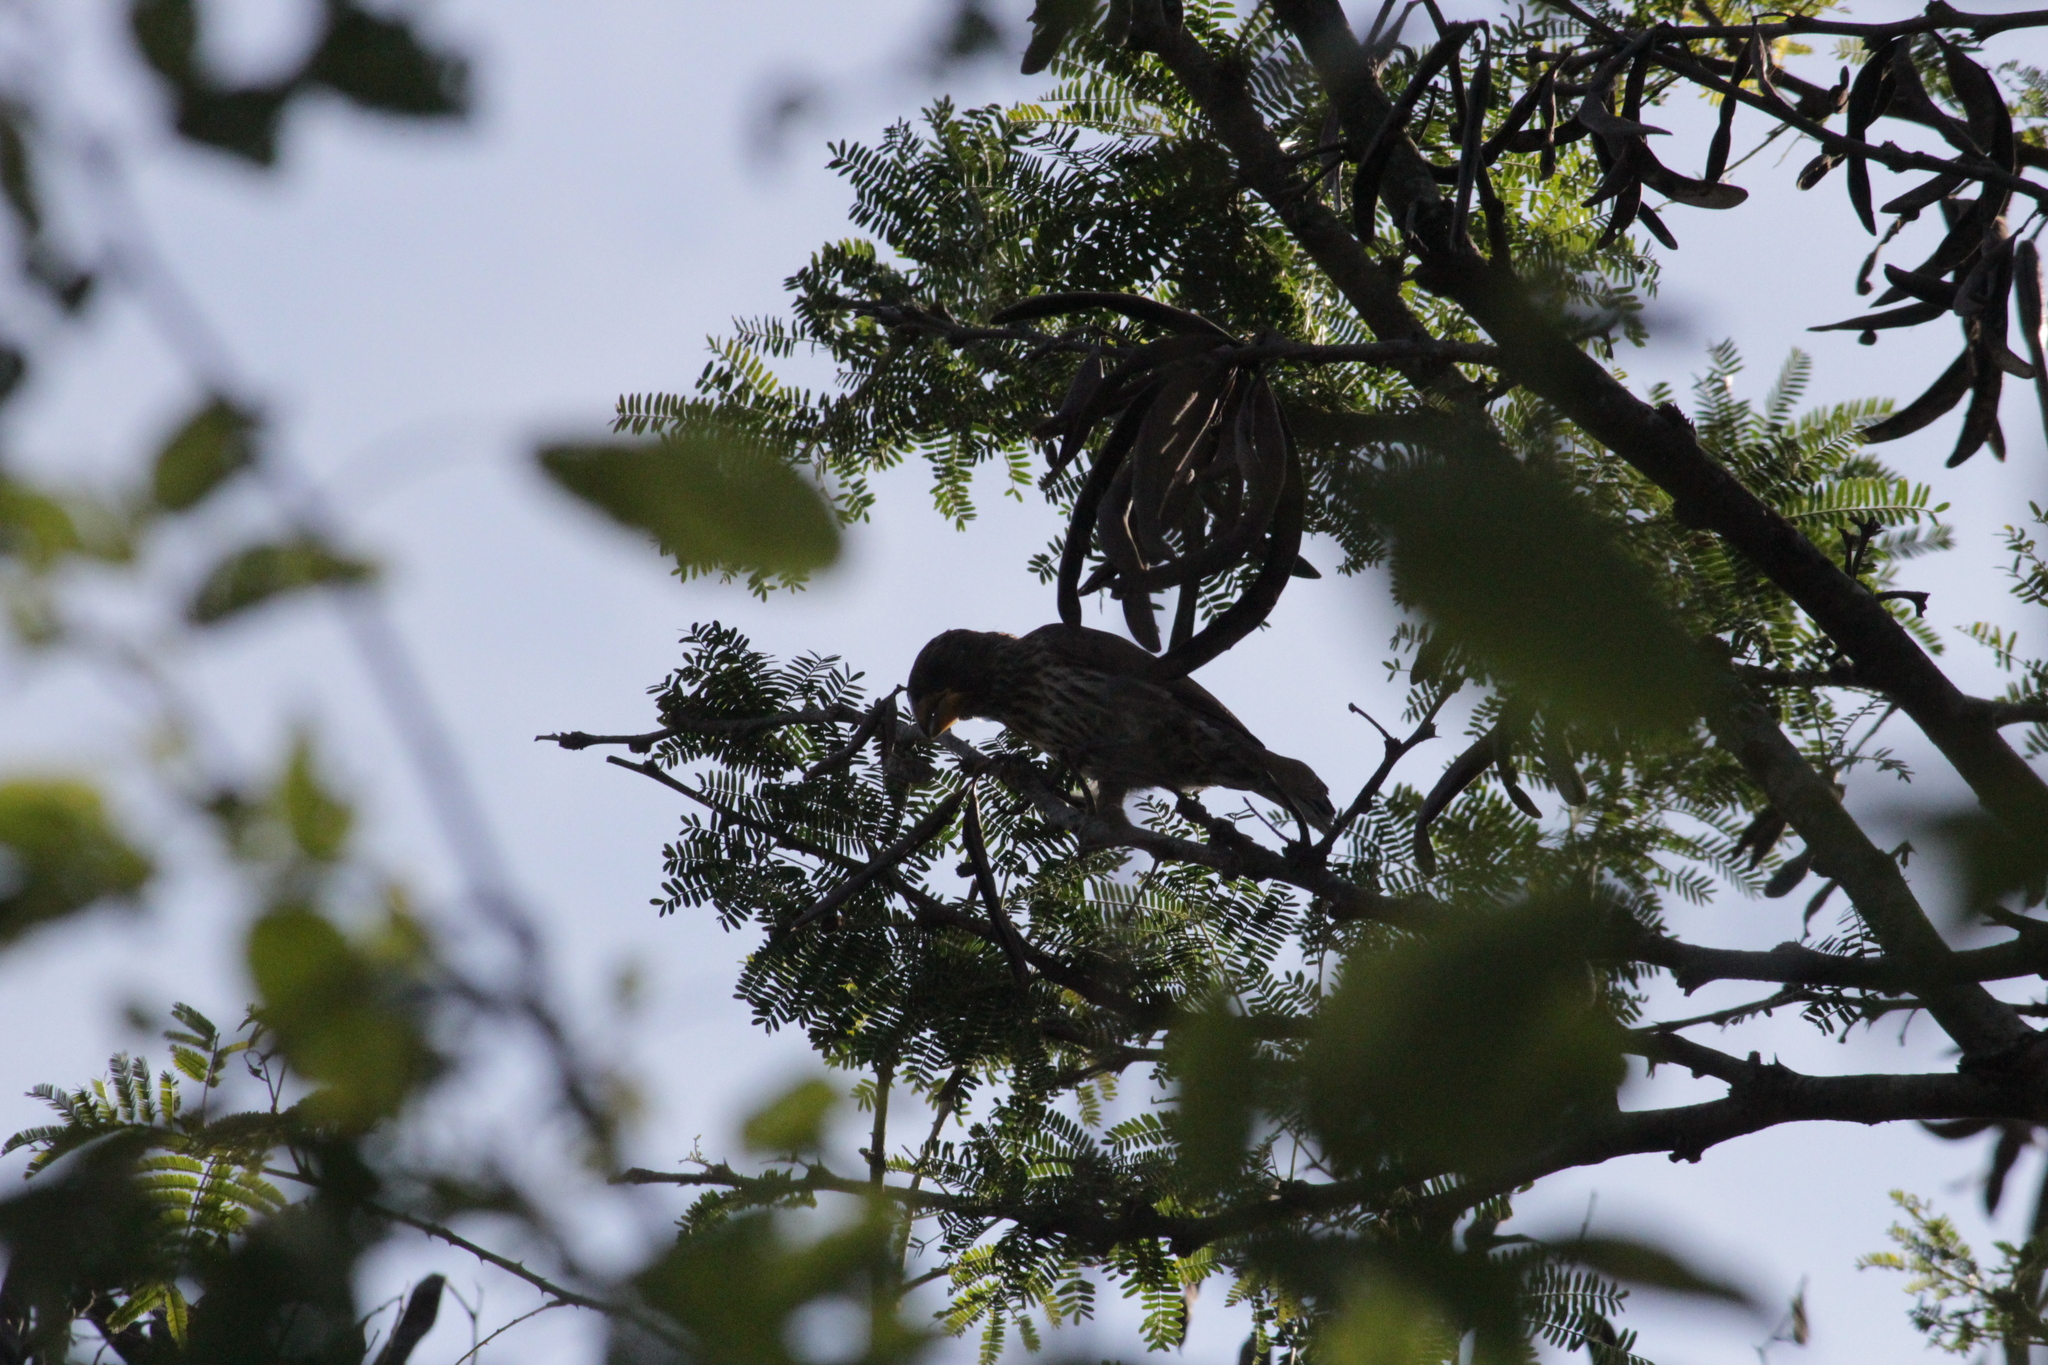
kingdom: Animalia
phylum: Chordata
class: Aves
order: Passeriformes
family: Ploceidae
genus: Amblyospiza
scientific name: Amblyospiza albifrons
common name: Thick-billed weaver
